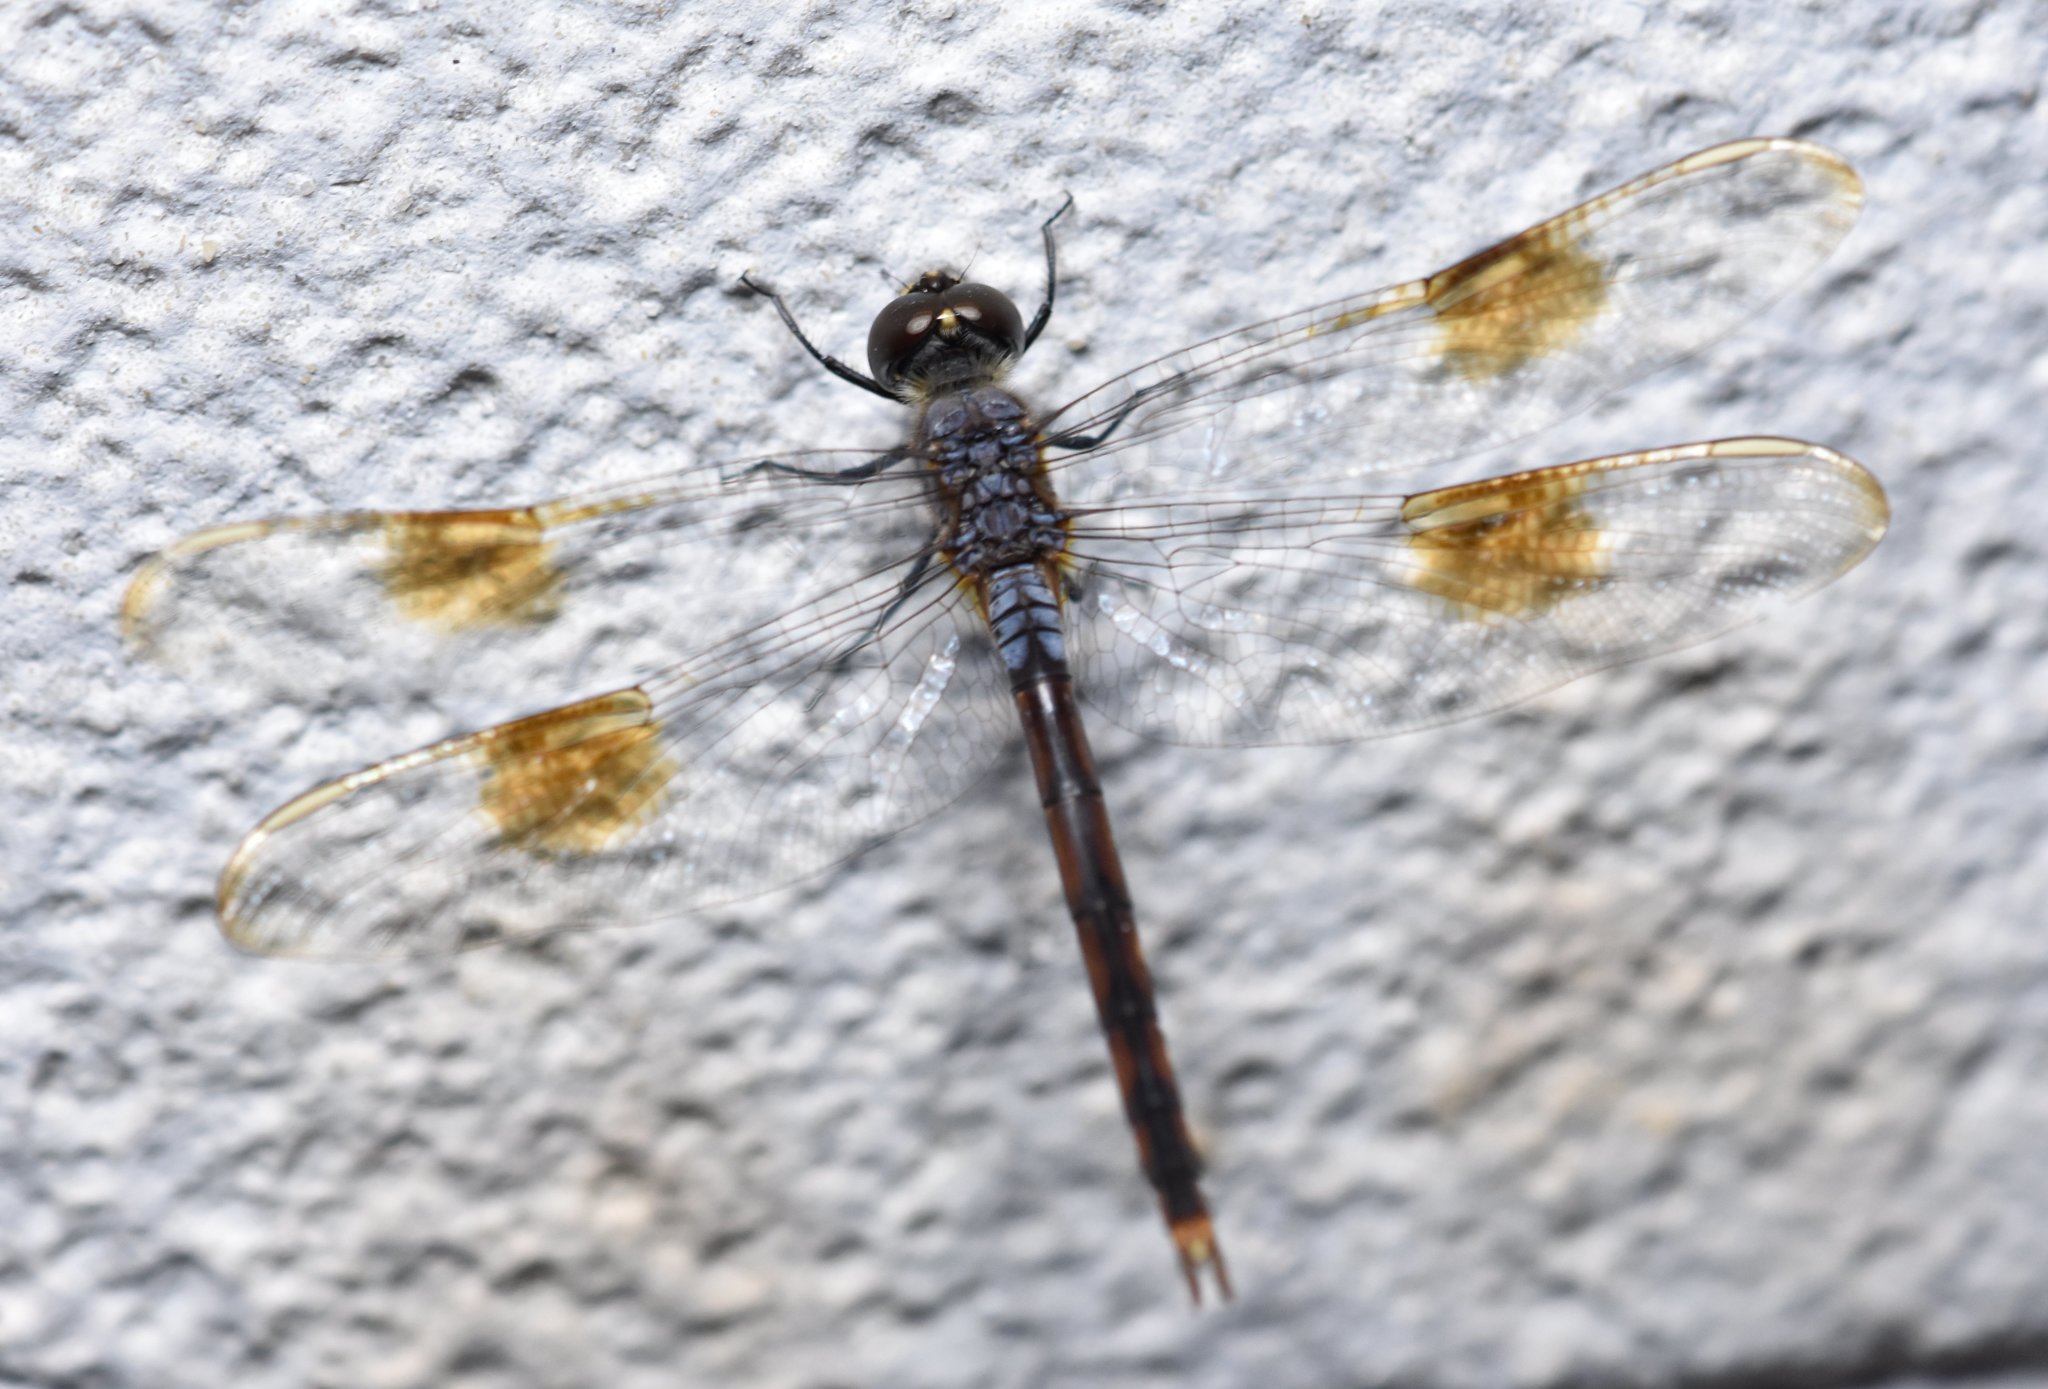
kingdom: Animalia
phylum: Arthropoda
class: Insecta
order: Odonata
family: Libellulidae
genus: Brachymesia
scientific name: Brachymesia gravida
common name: Four-spotted pennant
